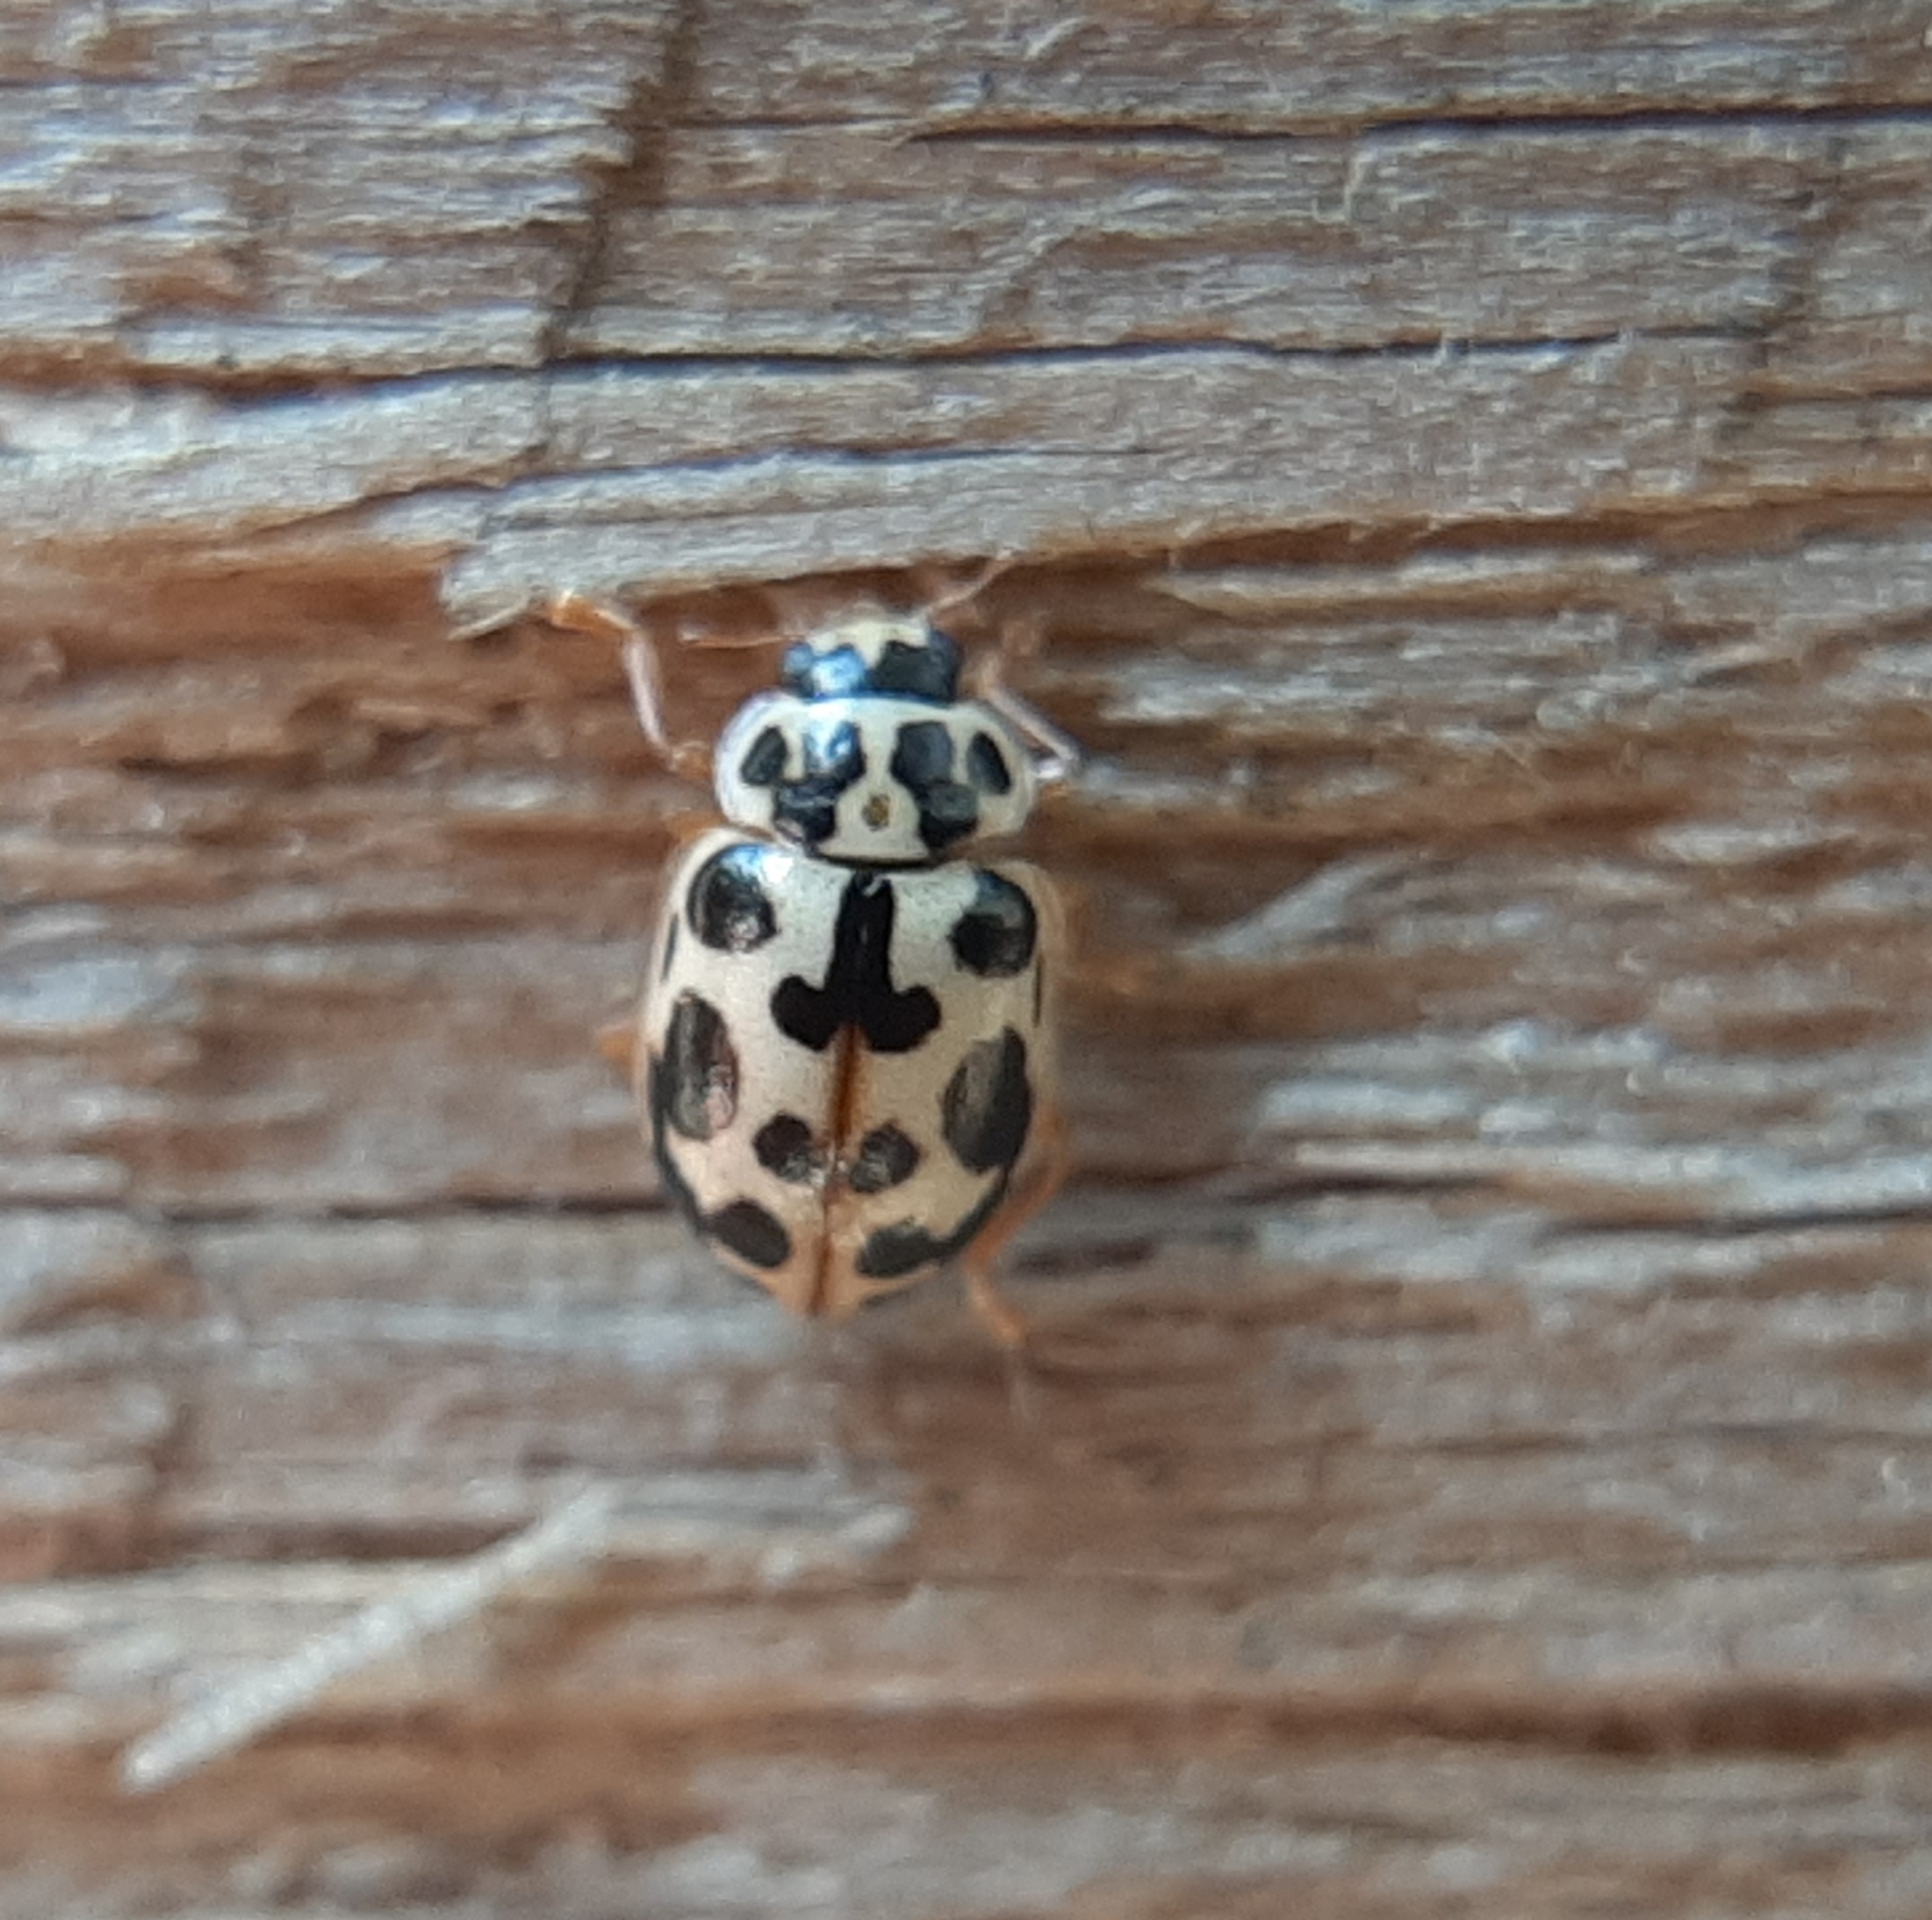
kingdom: Animalia
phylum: Arthropoda
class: Insecta
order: Coleoptera
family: Coccinellidae
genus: Anisosticta
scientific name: Anisosticta bitriangularis
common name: Marsh lady beetle
